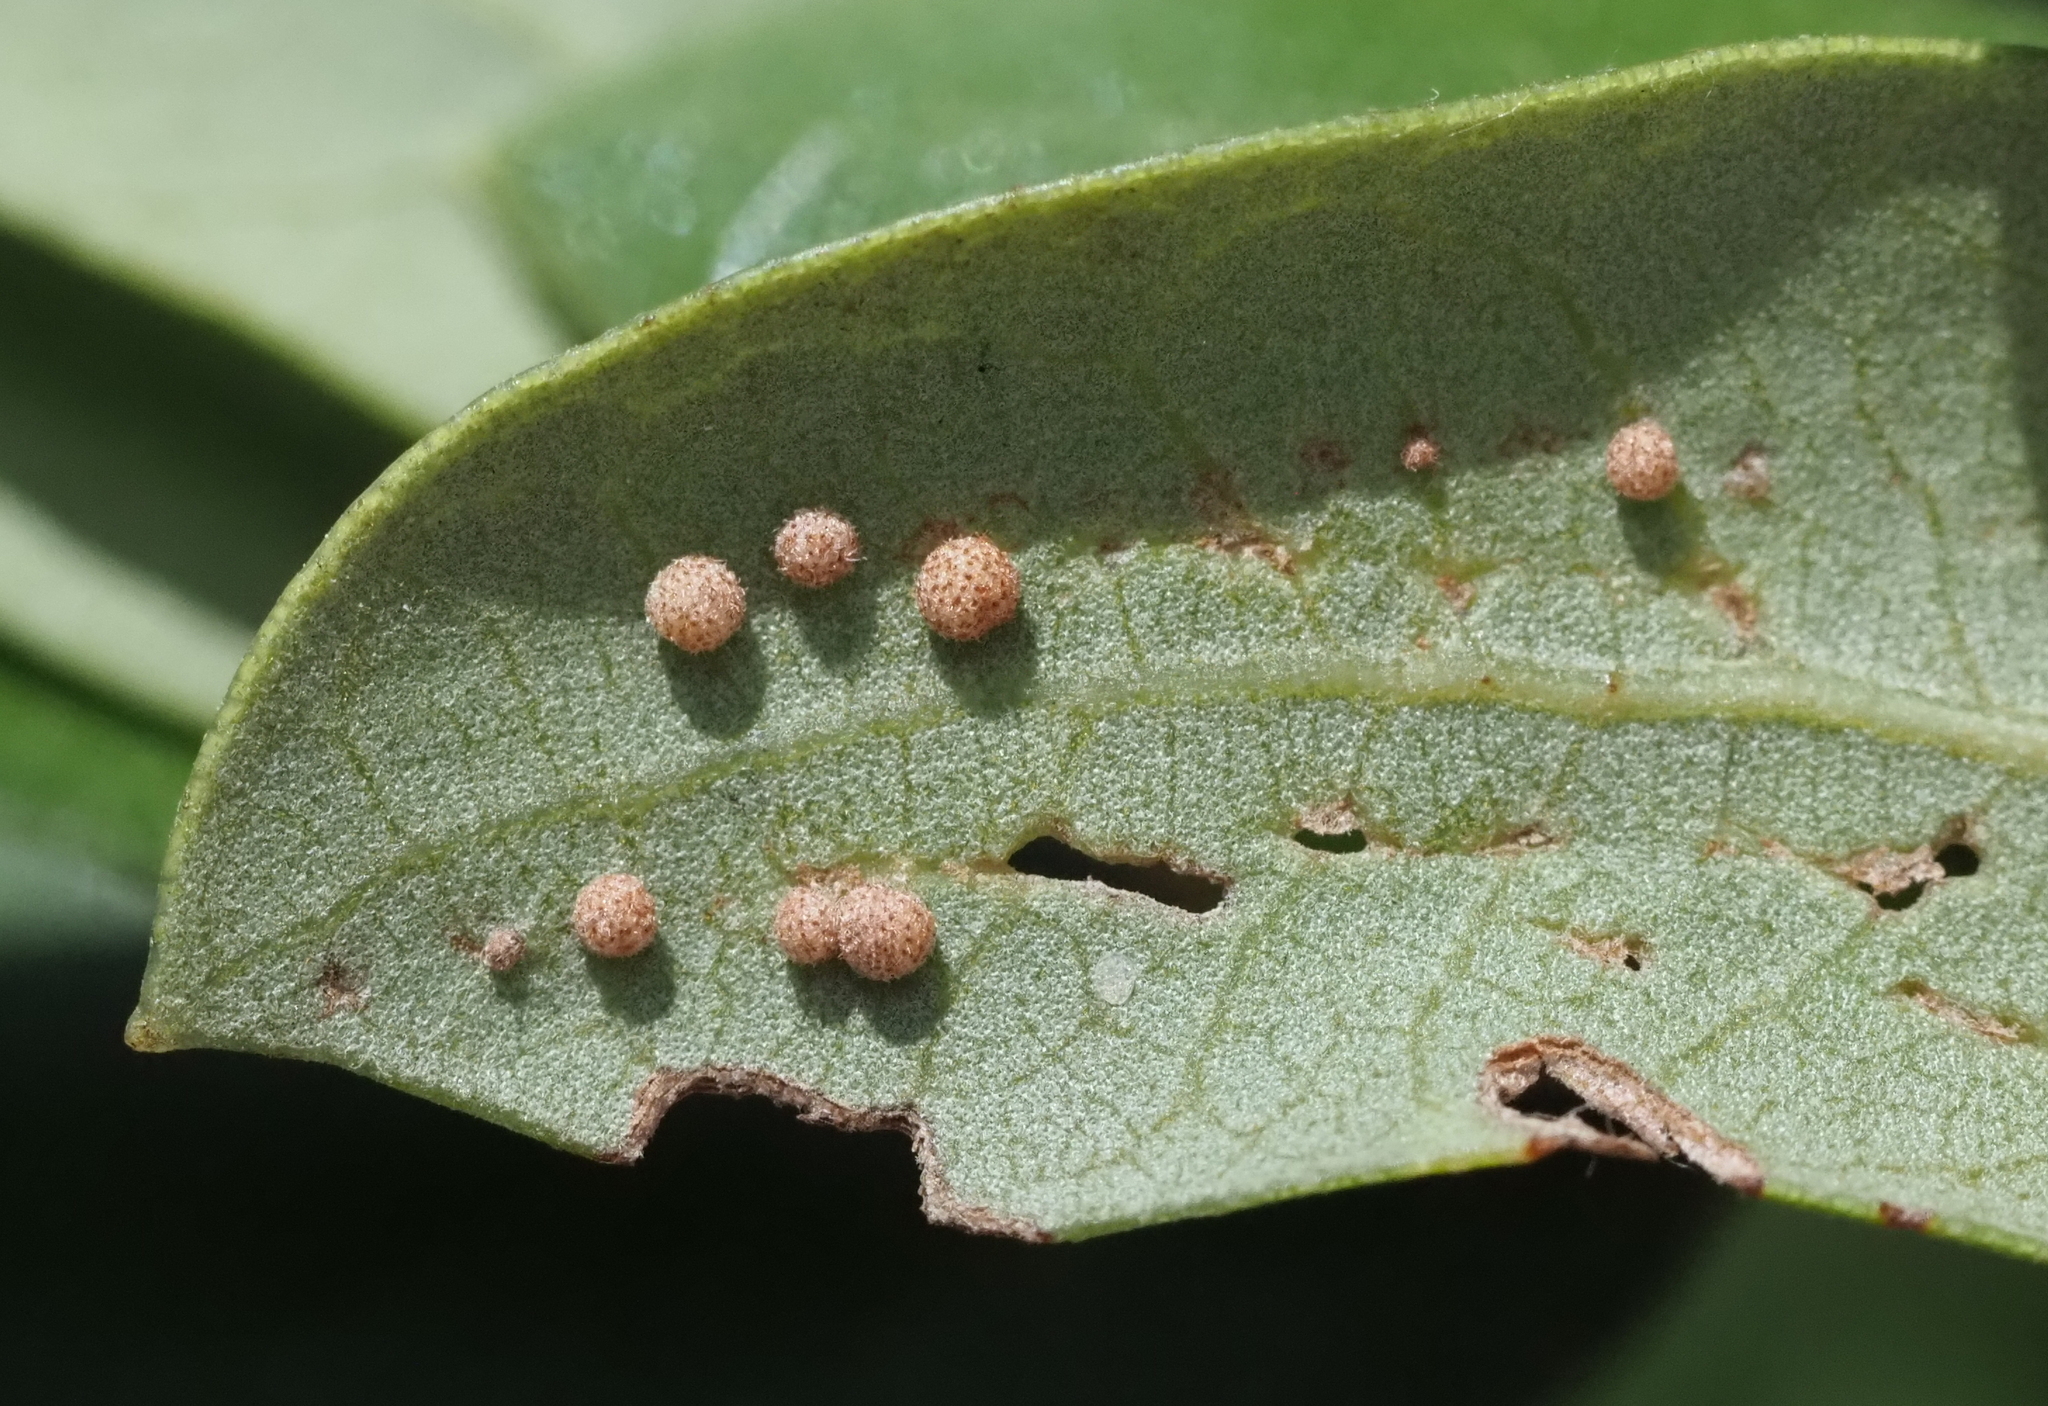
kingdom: Animalia
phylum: Arthropoda
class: Insecta
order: Hymenoptera
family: Cynipidae
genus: Belonocnema
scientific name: Belonocnema kinseyi
